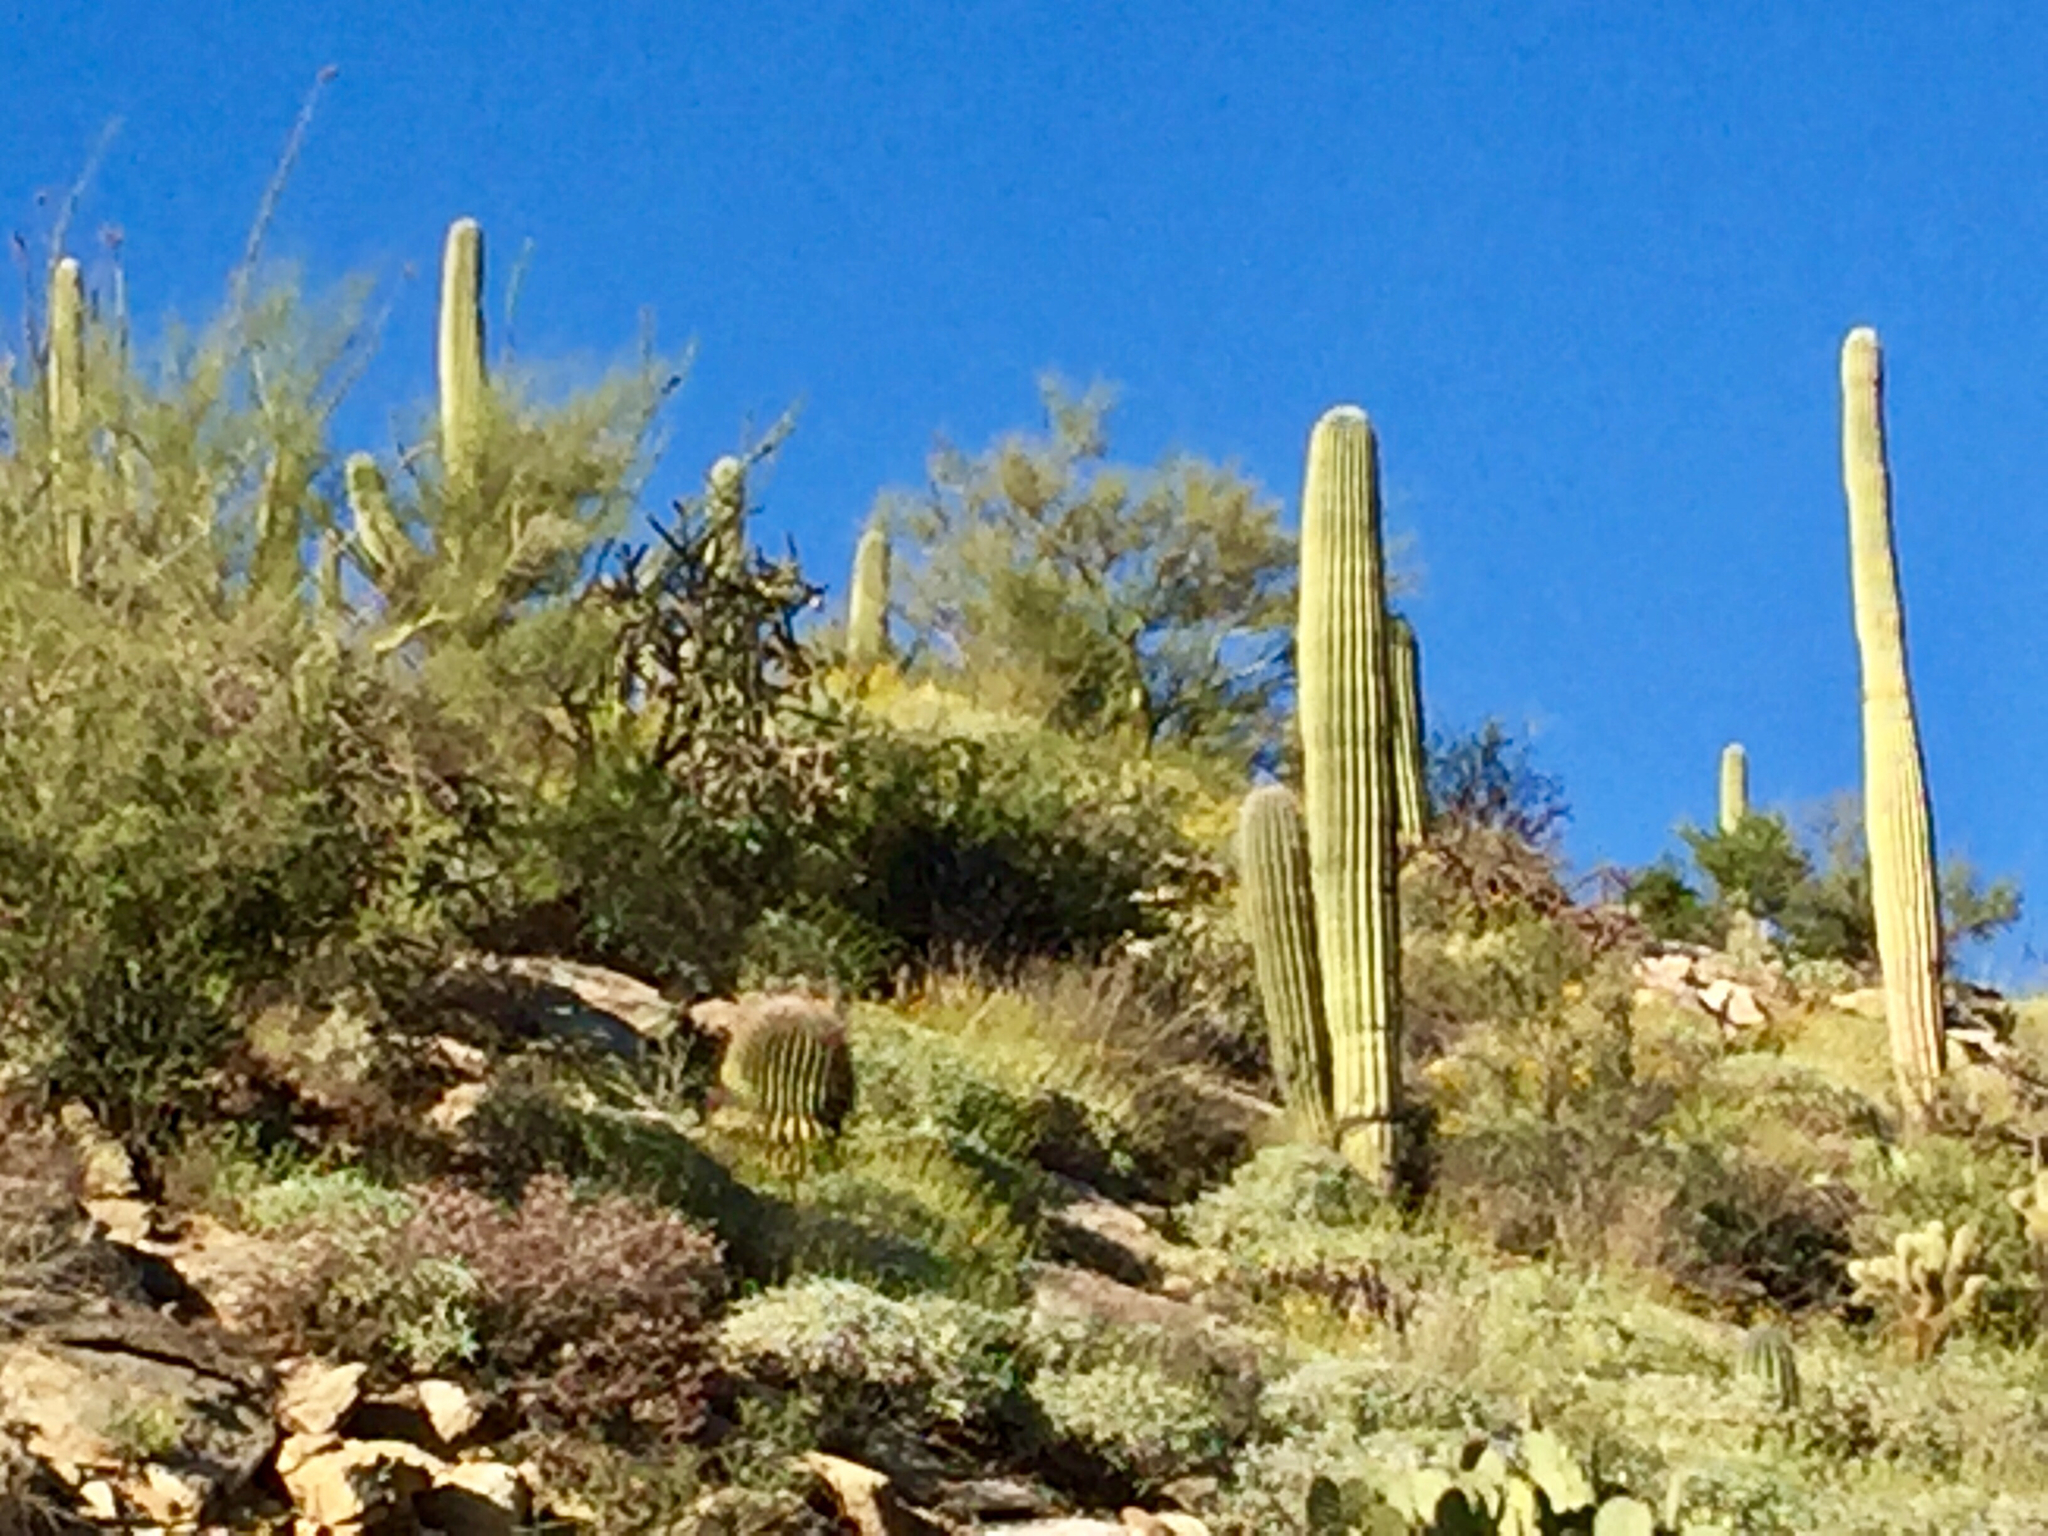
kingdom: Plantae
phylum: Tracheophyta
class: Magnoliopsida
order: Caryophyllales
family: Cactaceae
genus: Carnegiea
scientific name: Carnegiea gigantea
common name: Saguaro
